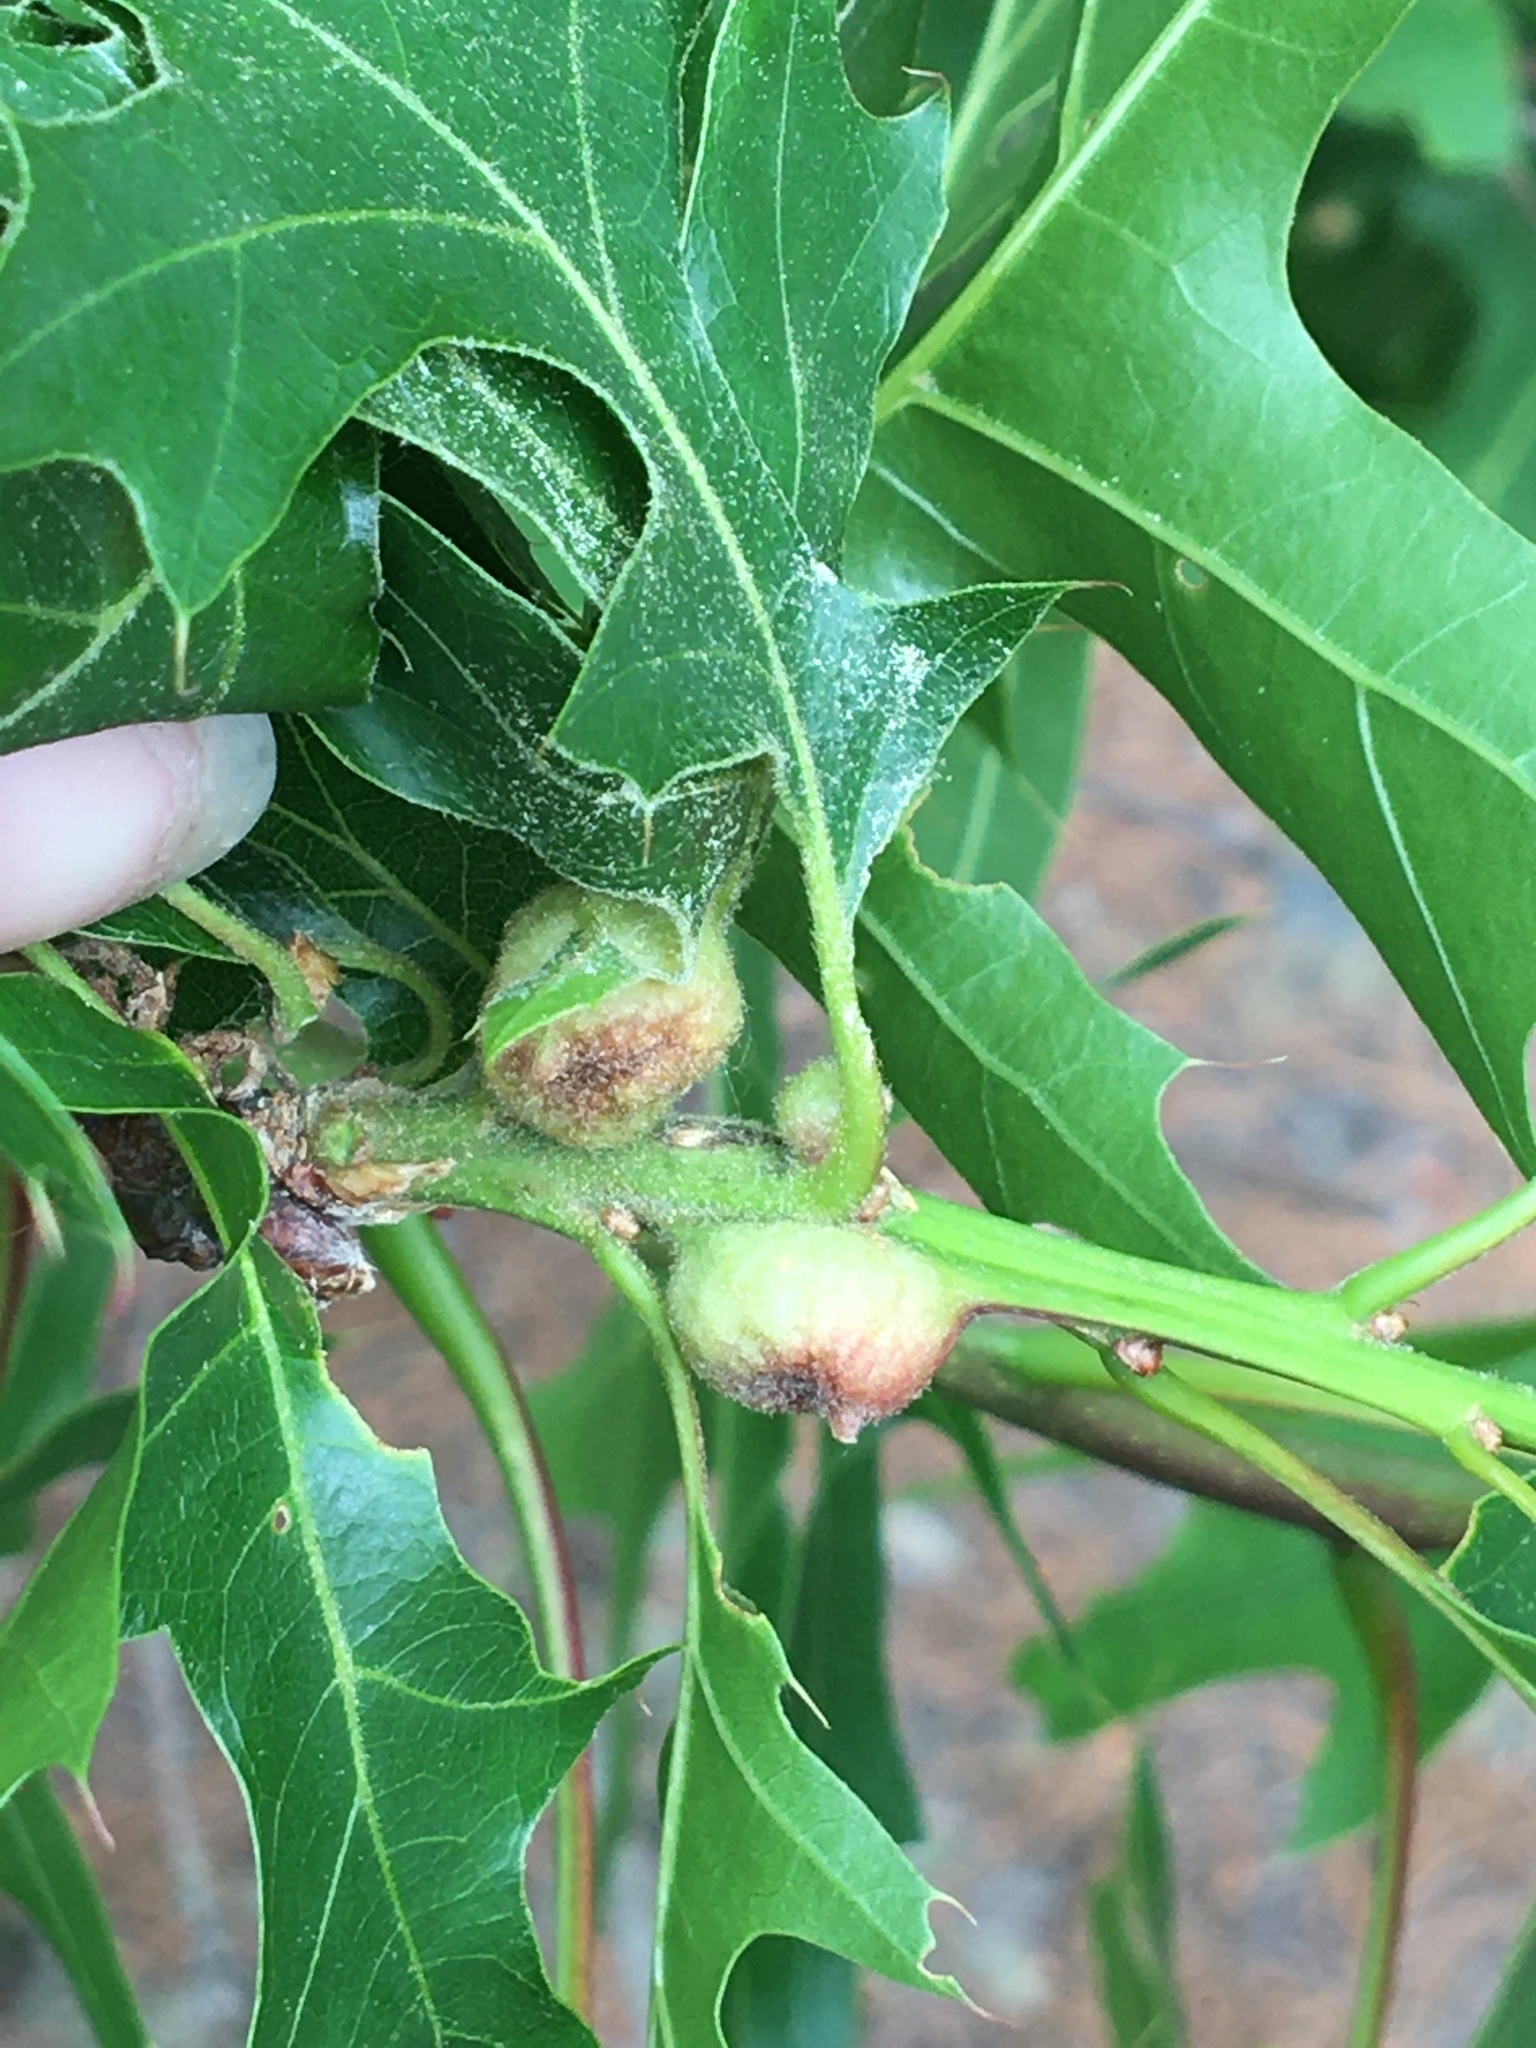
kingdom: Animalia
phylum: Arthropoda
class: Insecta
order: Hymenoptera
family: Cynipidae
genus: Dryocosmus
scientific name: Dryocosmus quercuspalustris
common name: Succulent oak gall wasp
